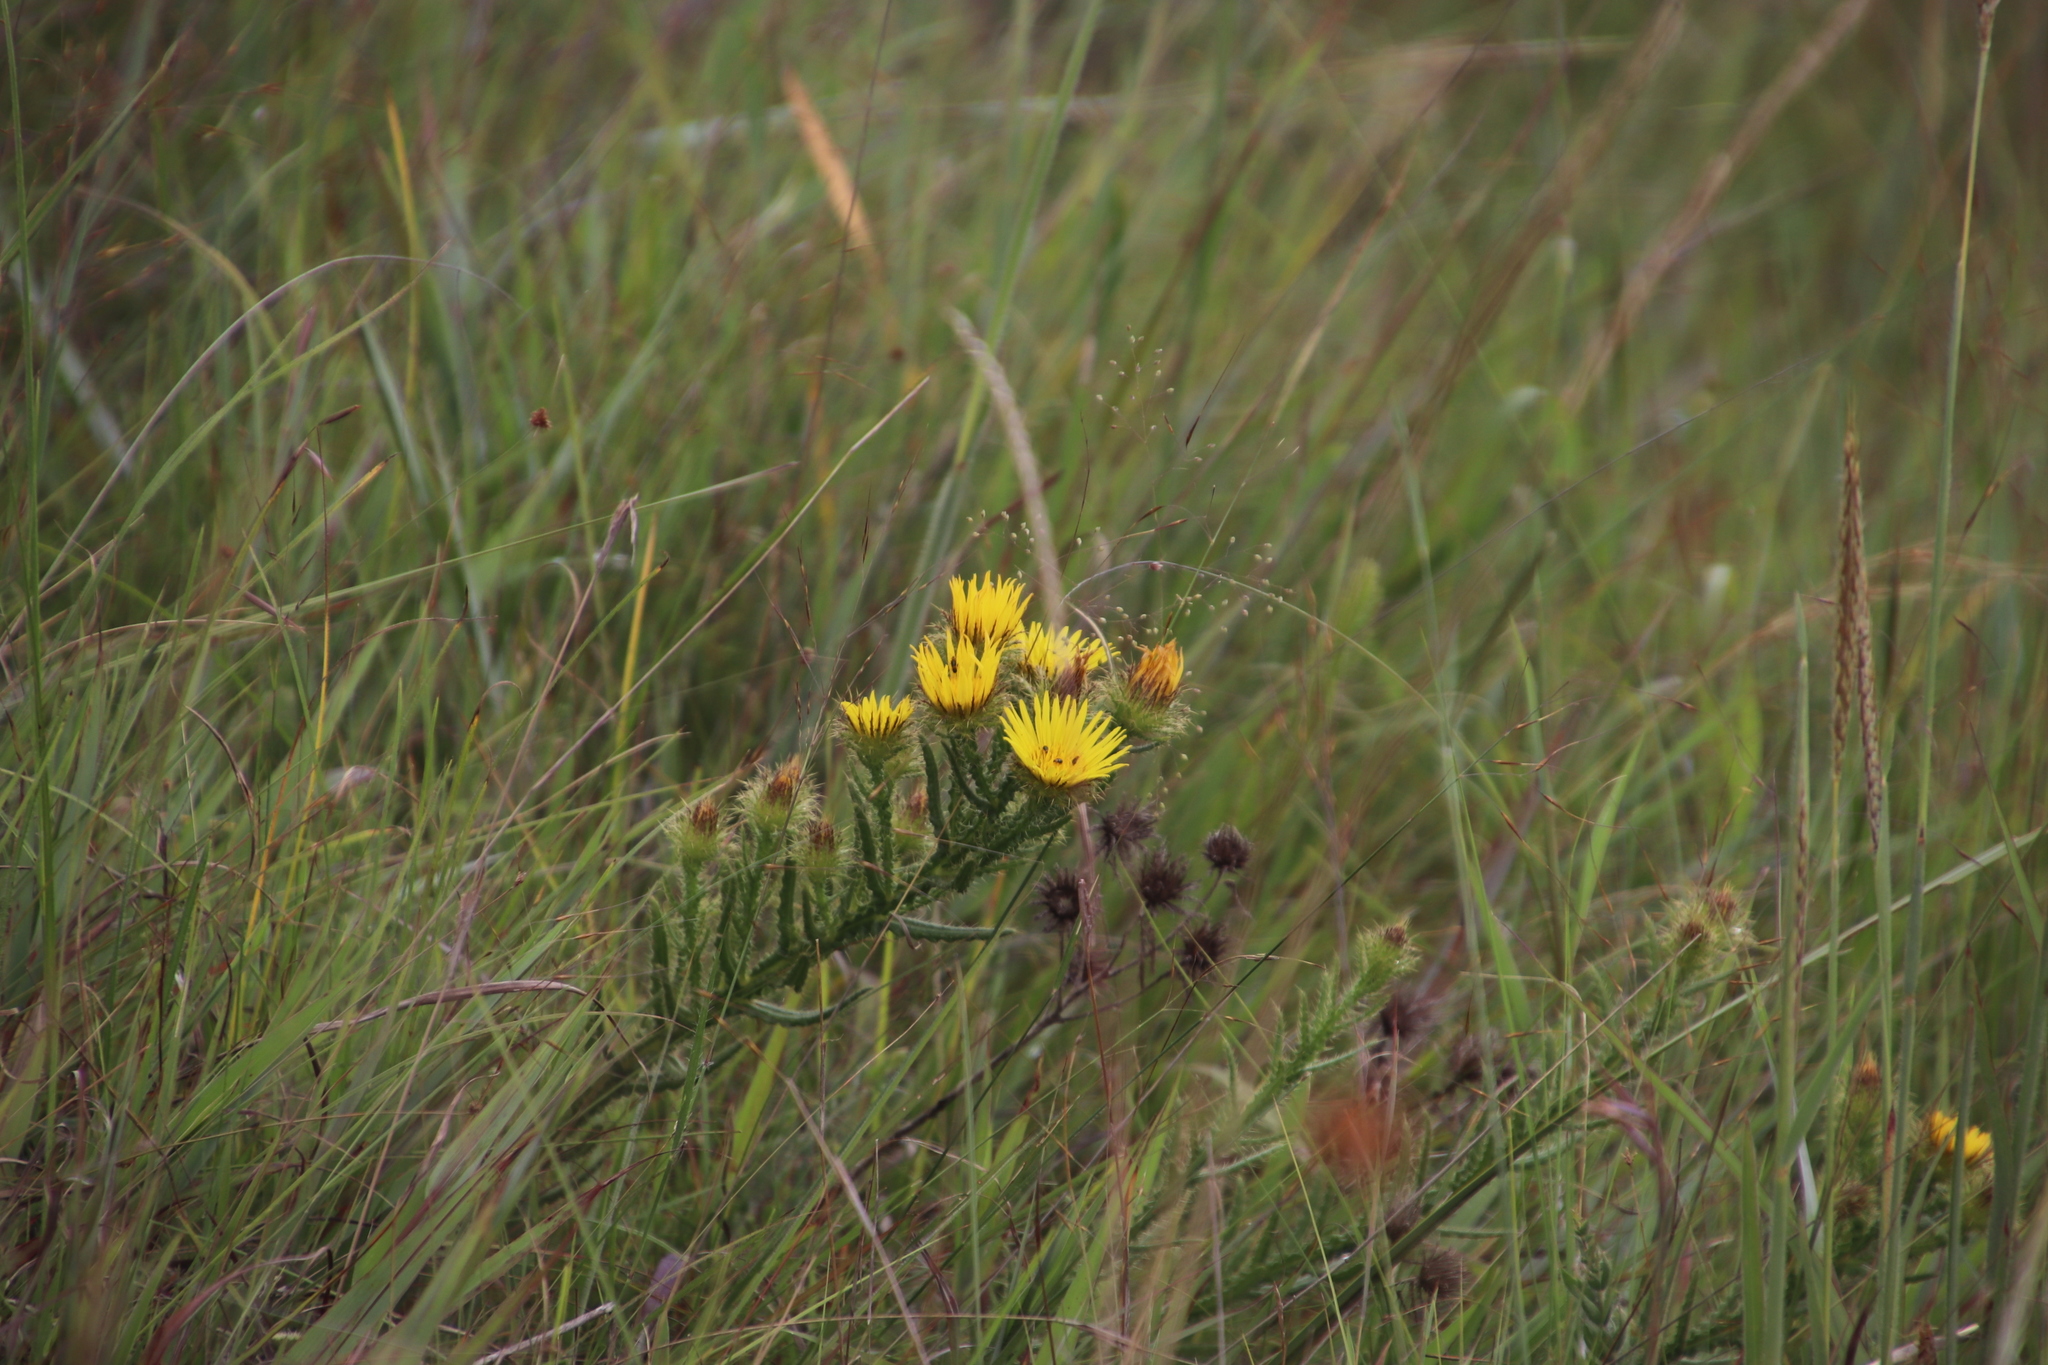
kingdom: Plantae
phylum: Tracheophyta
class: Magnoliopsida
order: Asterales
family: Asteraceae
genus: Berkheya
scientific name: Berkheya echinacea
